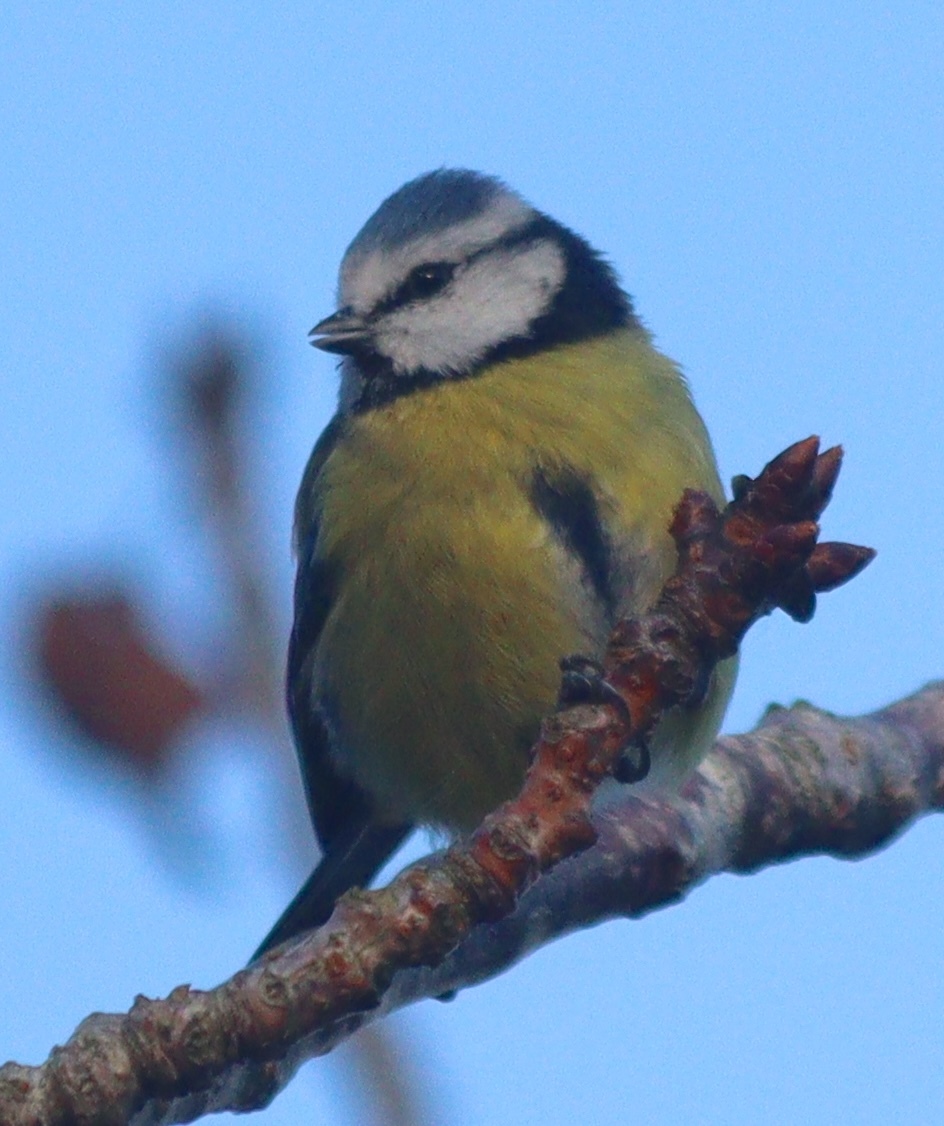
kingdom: Animalia
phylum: Chordata
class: Aves
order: Passeriformes
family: Paridae
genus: Cyanistes
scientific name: Cyanistes caeruleus
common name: Eurasian blue tit
